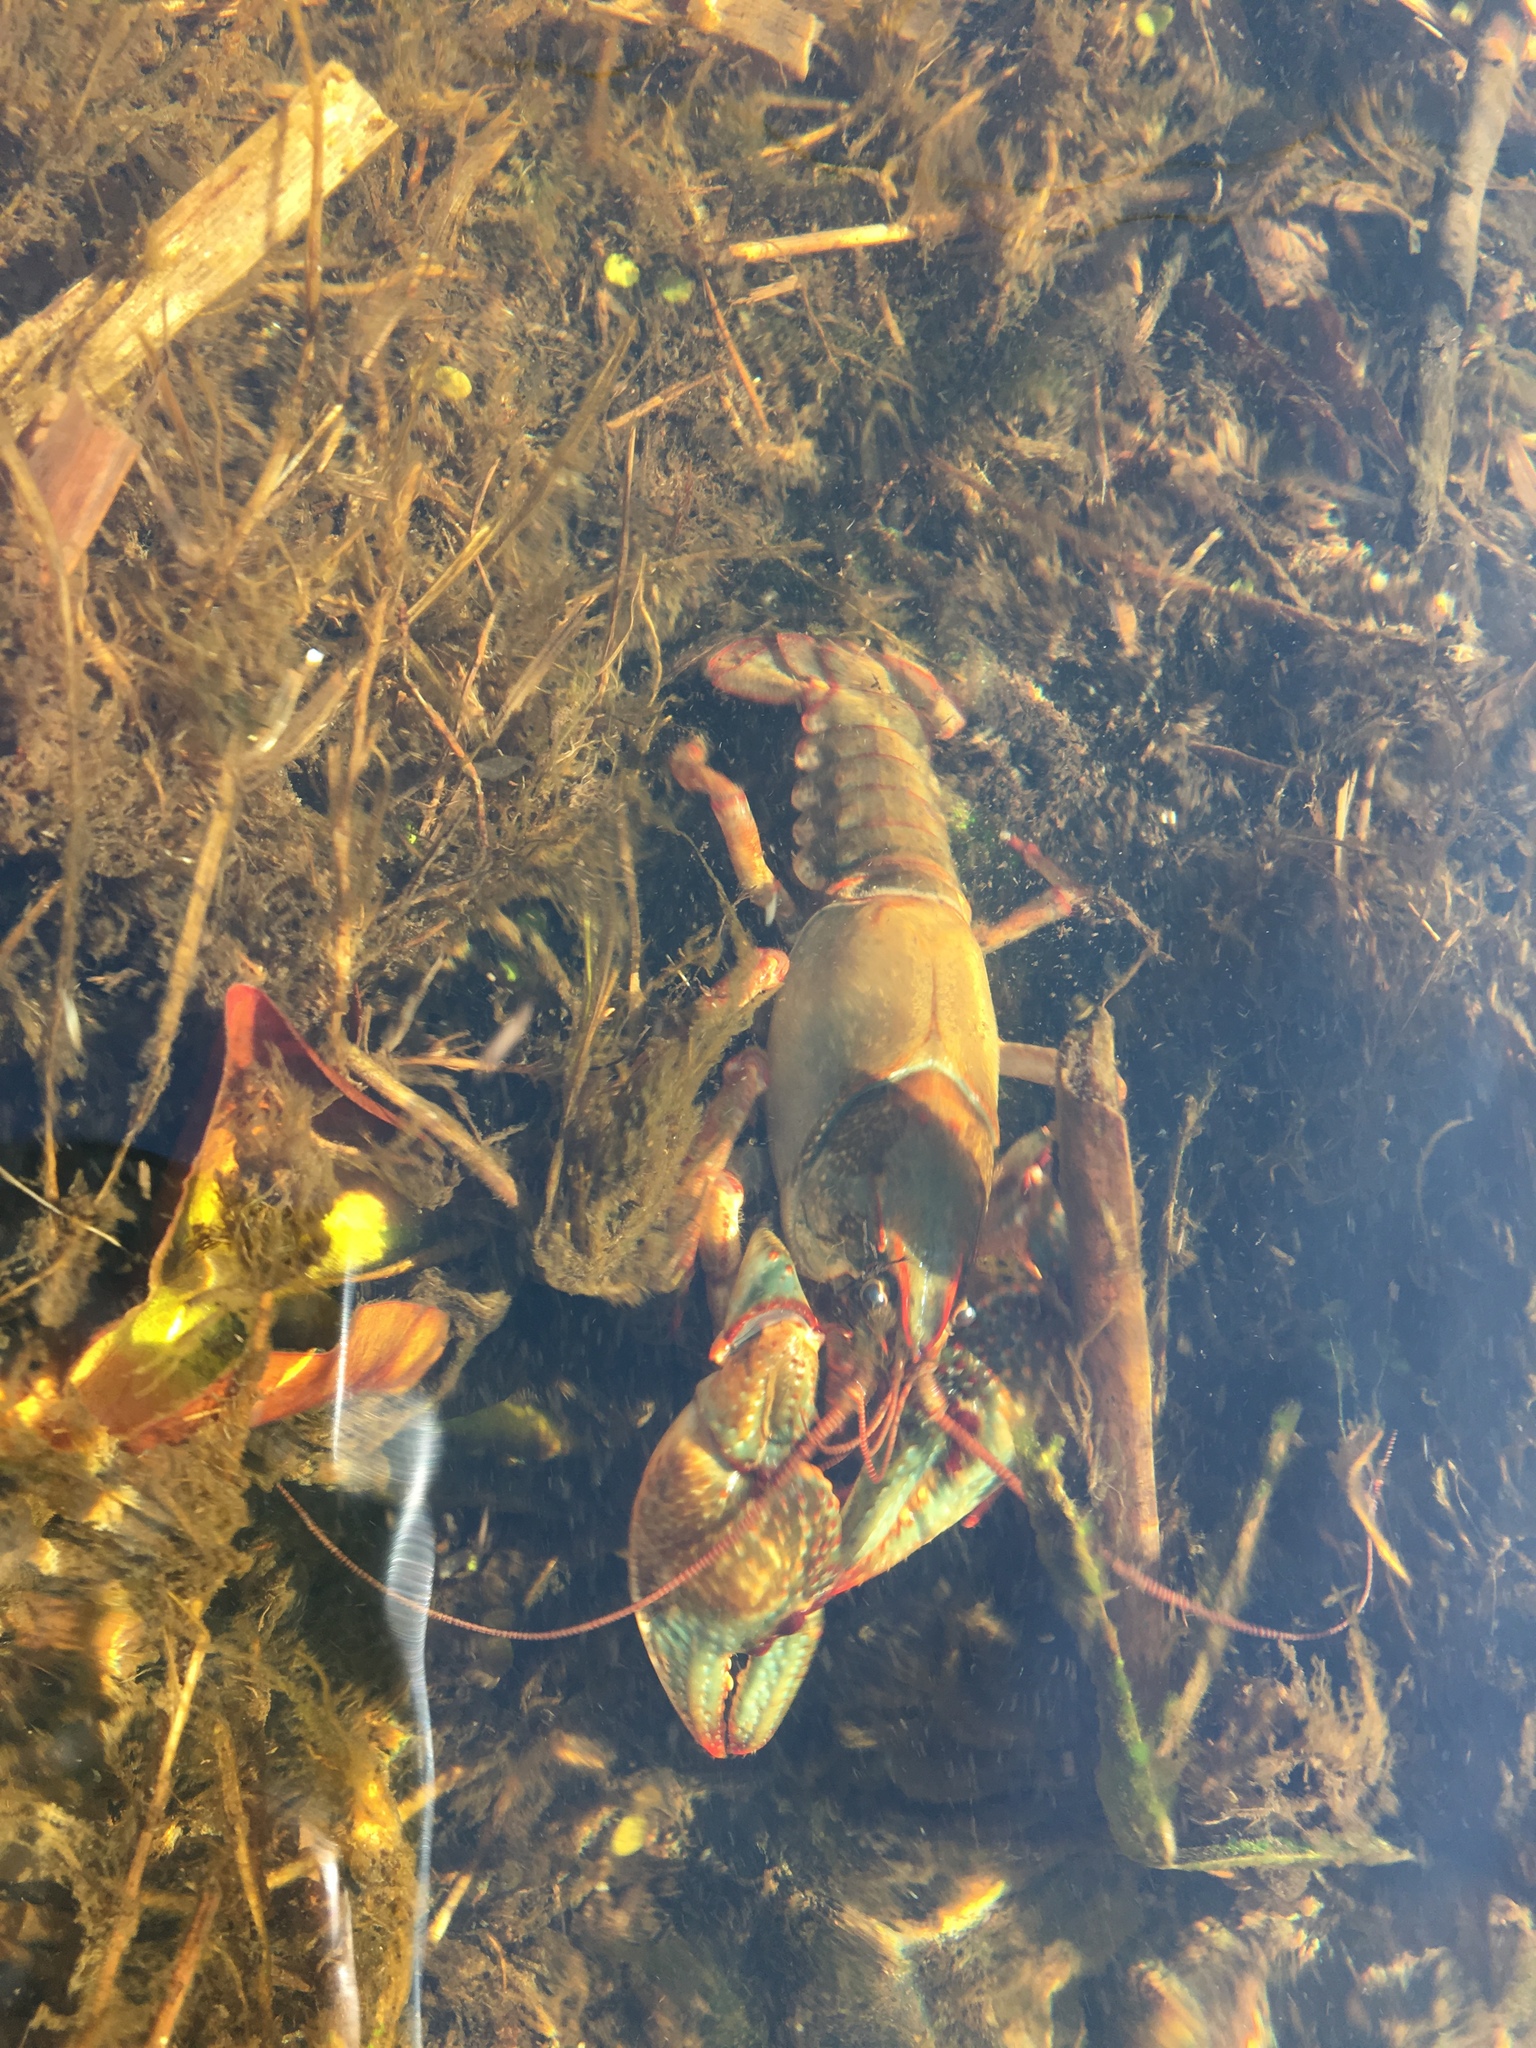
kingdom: Animalia
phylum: Arthropoda
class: Malacostraca
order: Decapoda
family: Cambaridae
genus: Lacunicambarus
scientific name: Lacunicambarus polychromatus
